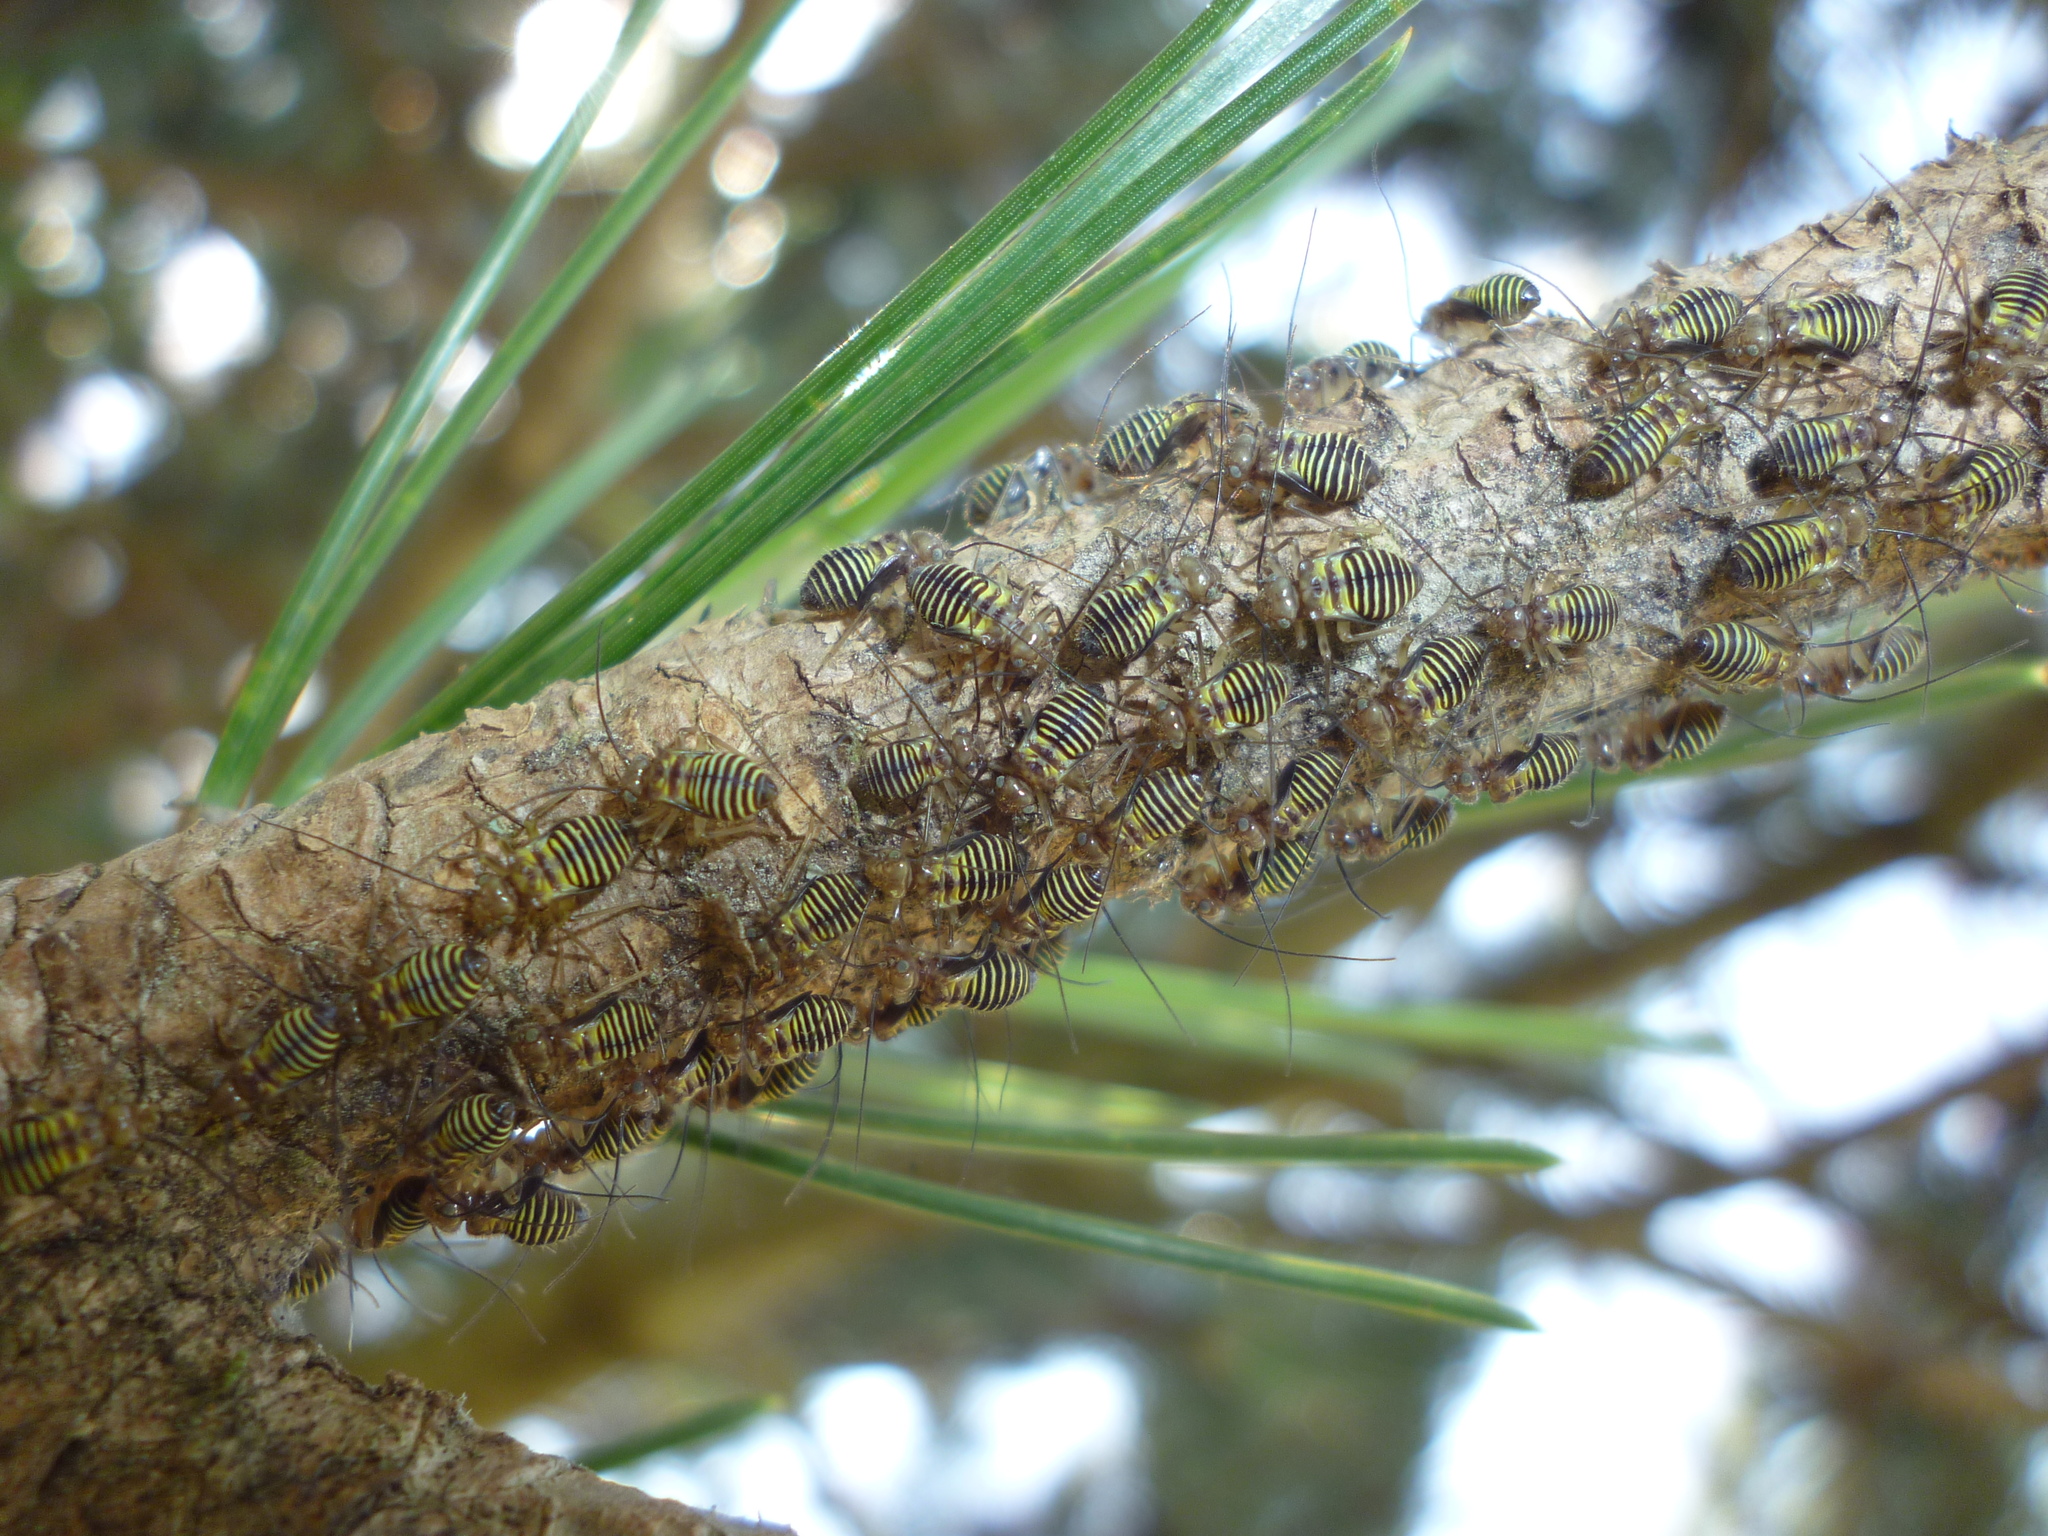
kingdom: Animalia
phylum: Arthropoda
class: Insecta
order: Psocodea
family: Psocidae
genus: Cerastipsocus
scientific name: Cerastipsocus venosus
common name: Tree cattle
